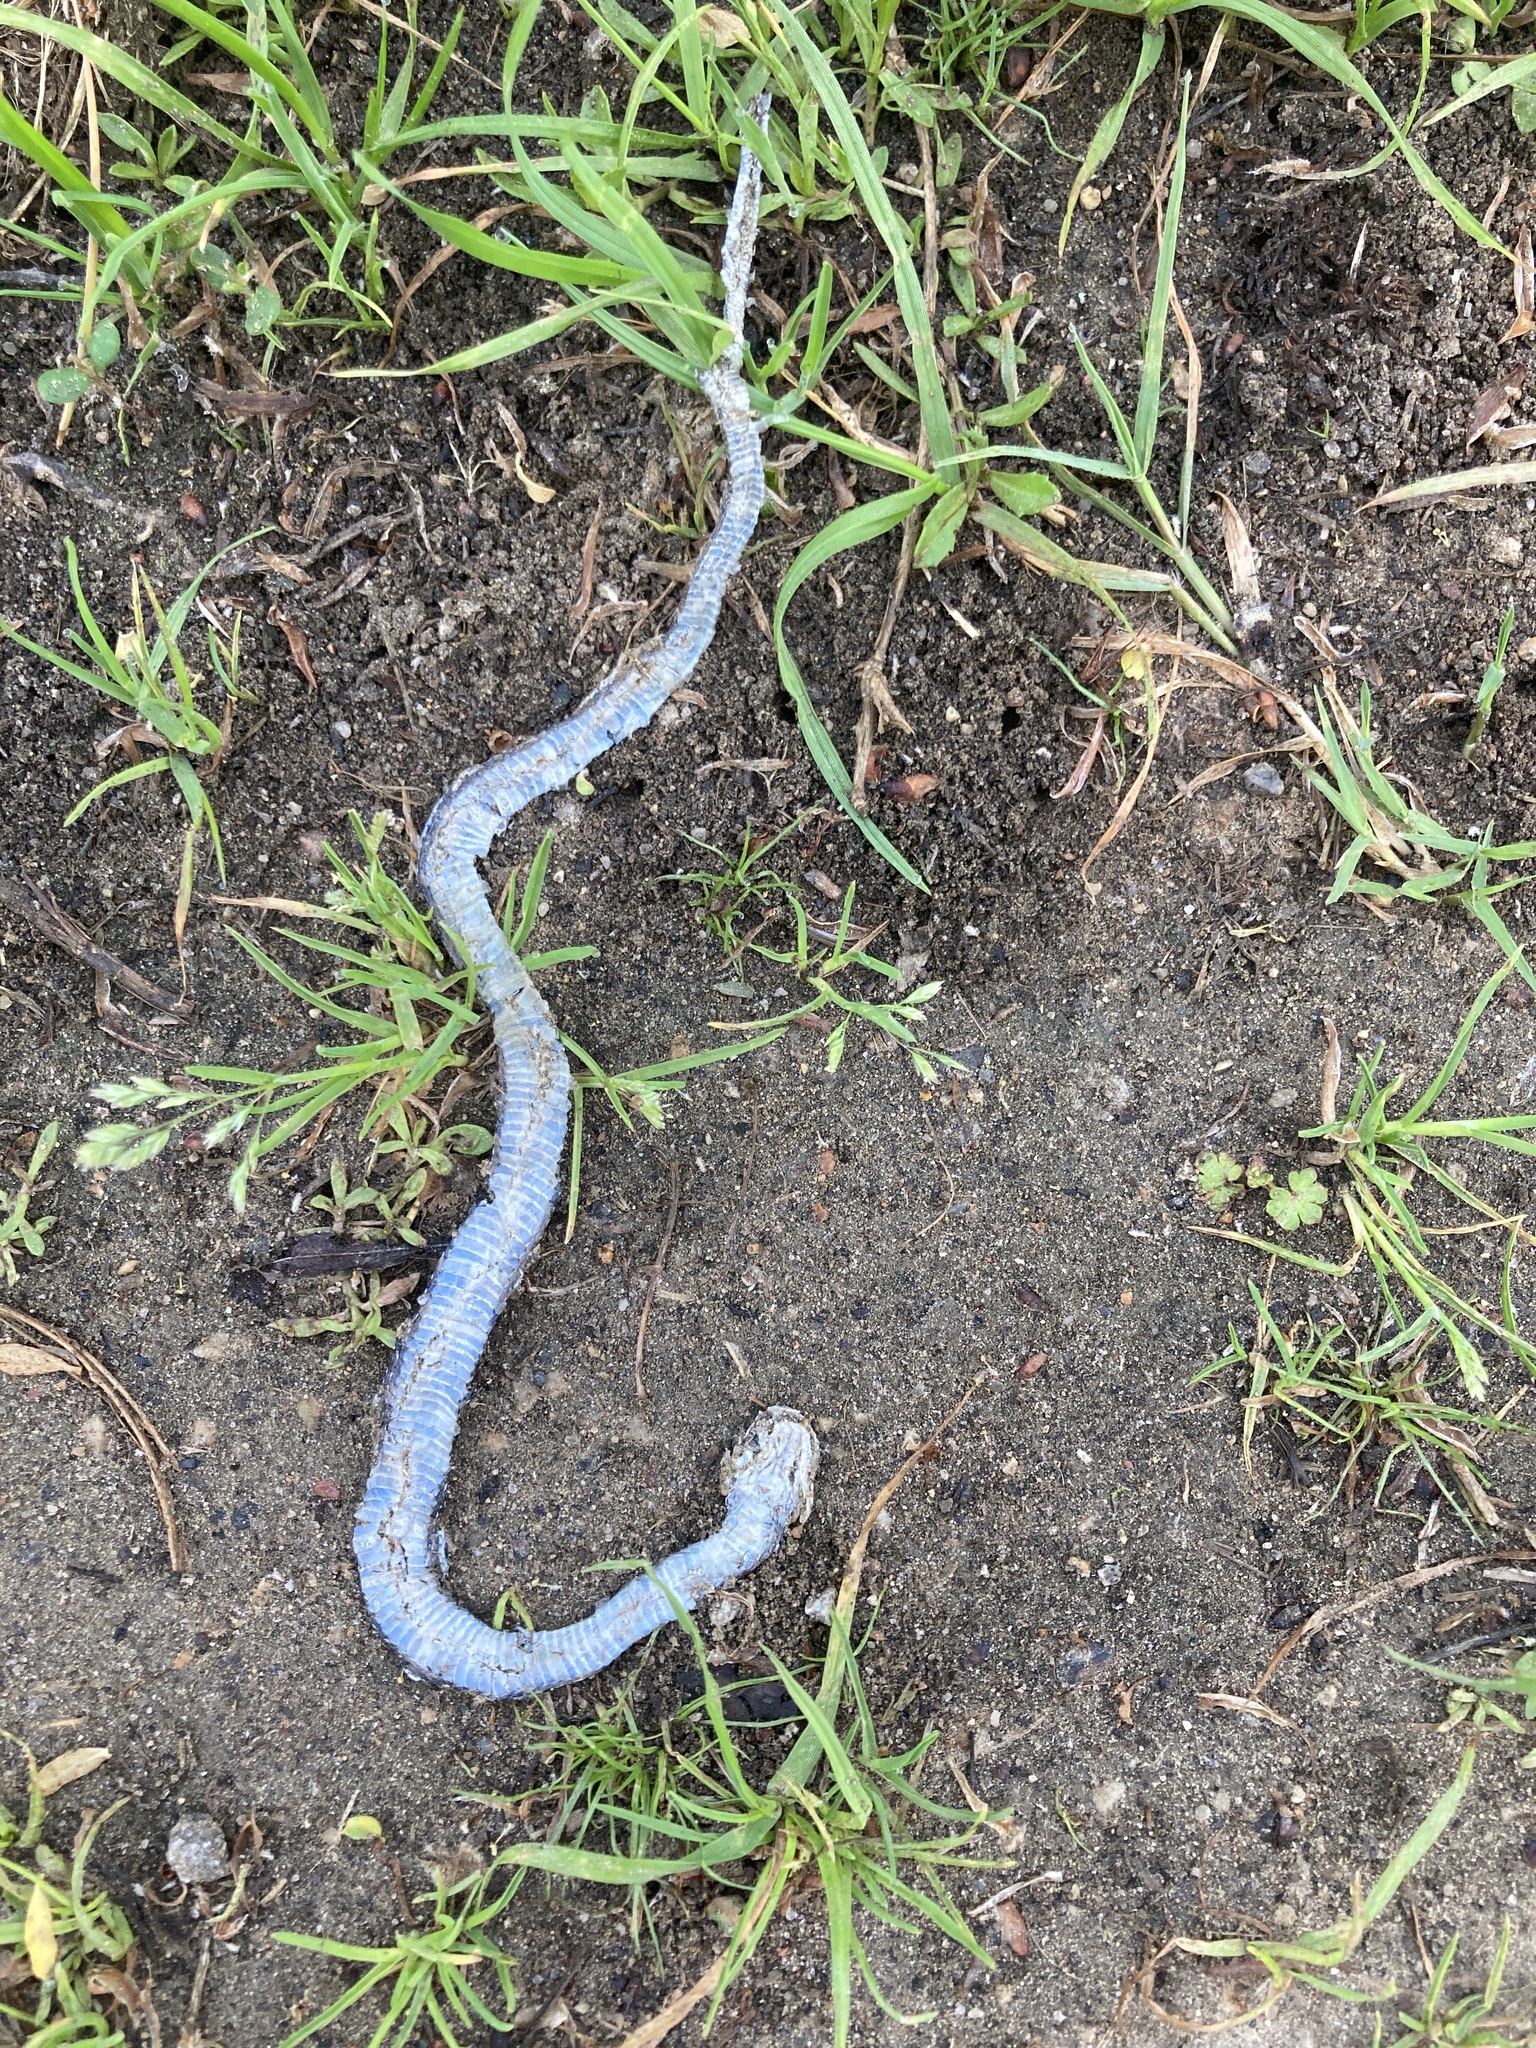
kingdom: Animalia
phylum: Chordata
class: Squamata
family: Colubridae
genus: Thamnophis
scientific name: Thamnophis proximus
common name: Western ribbon snake
